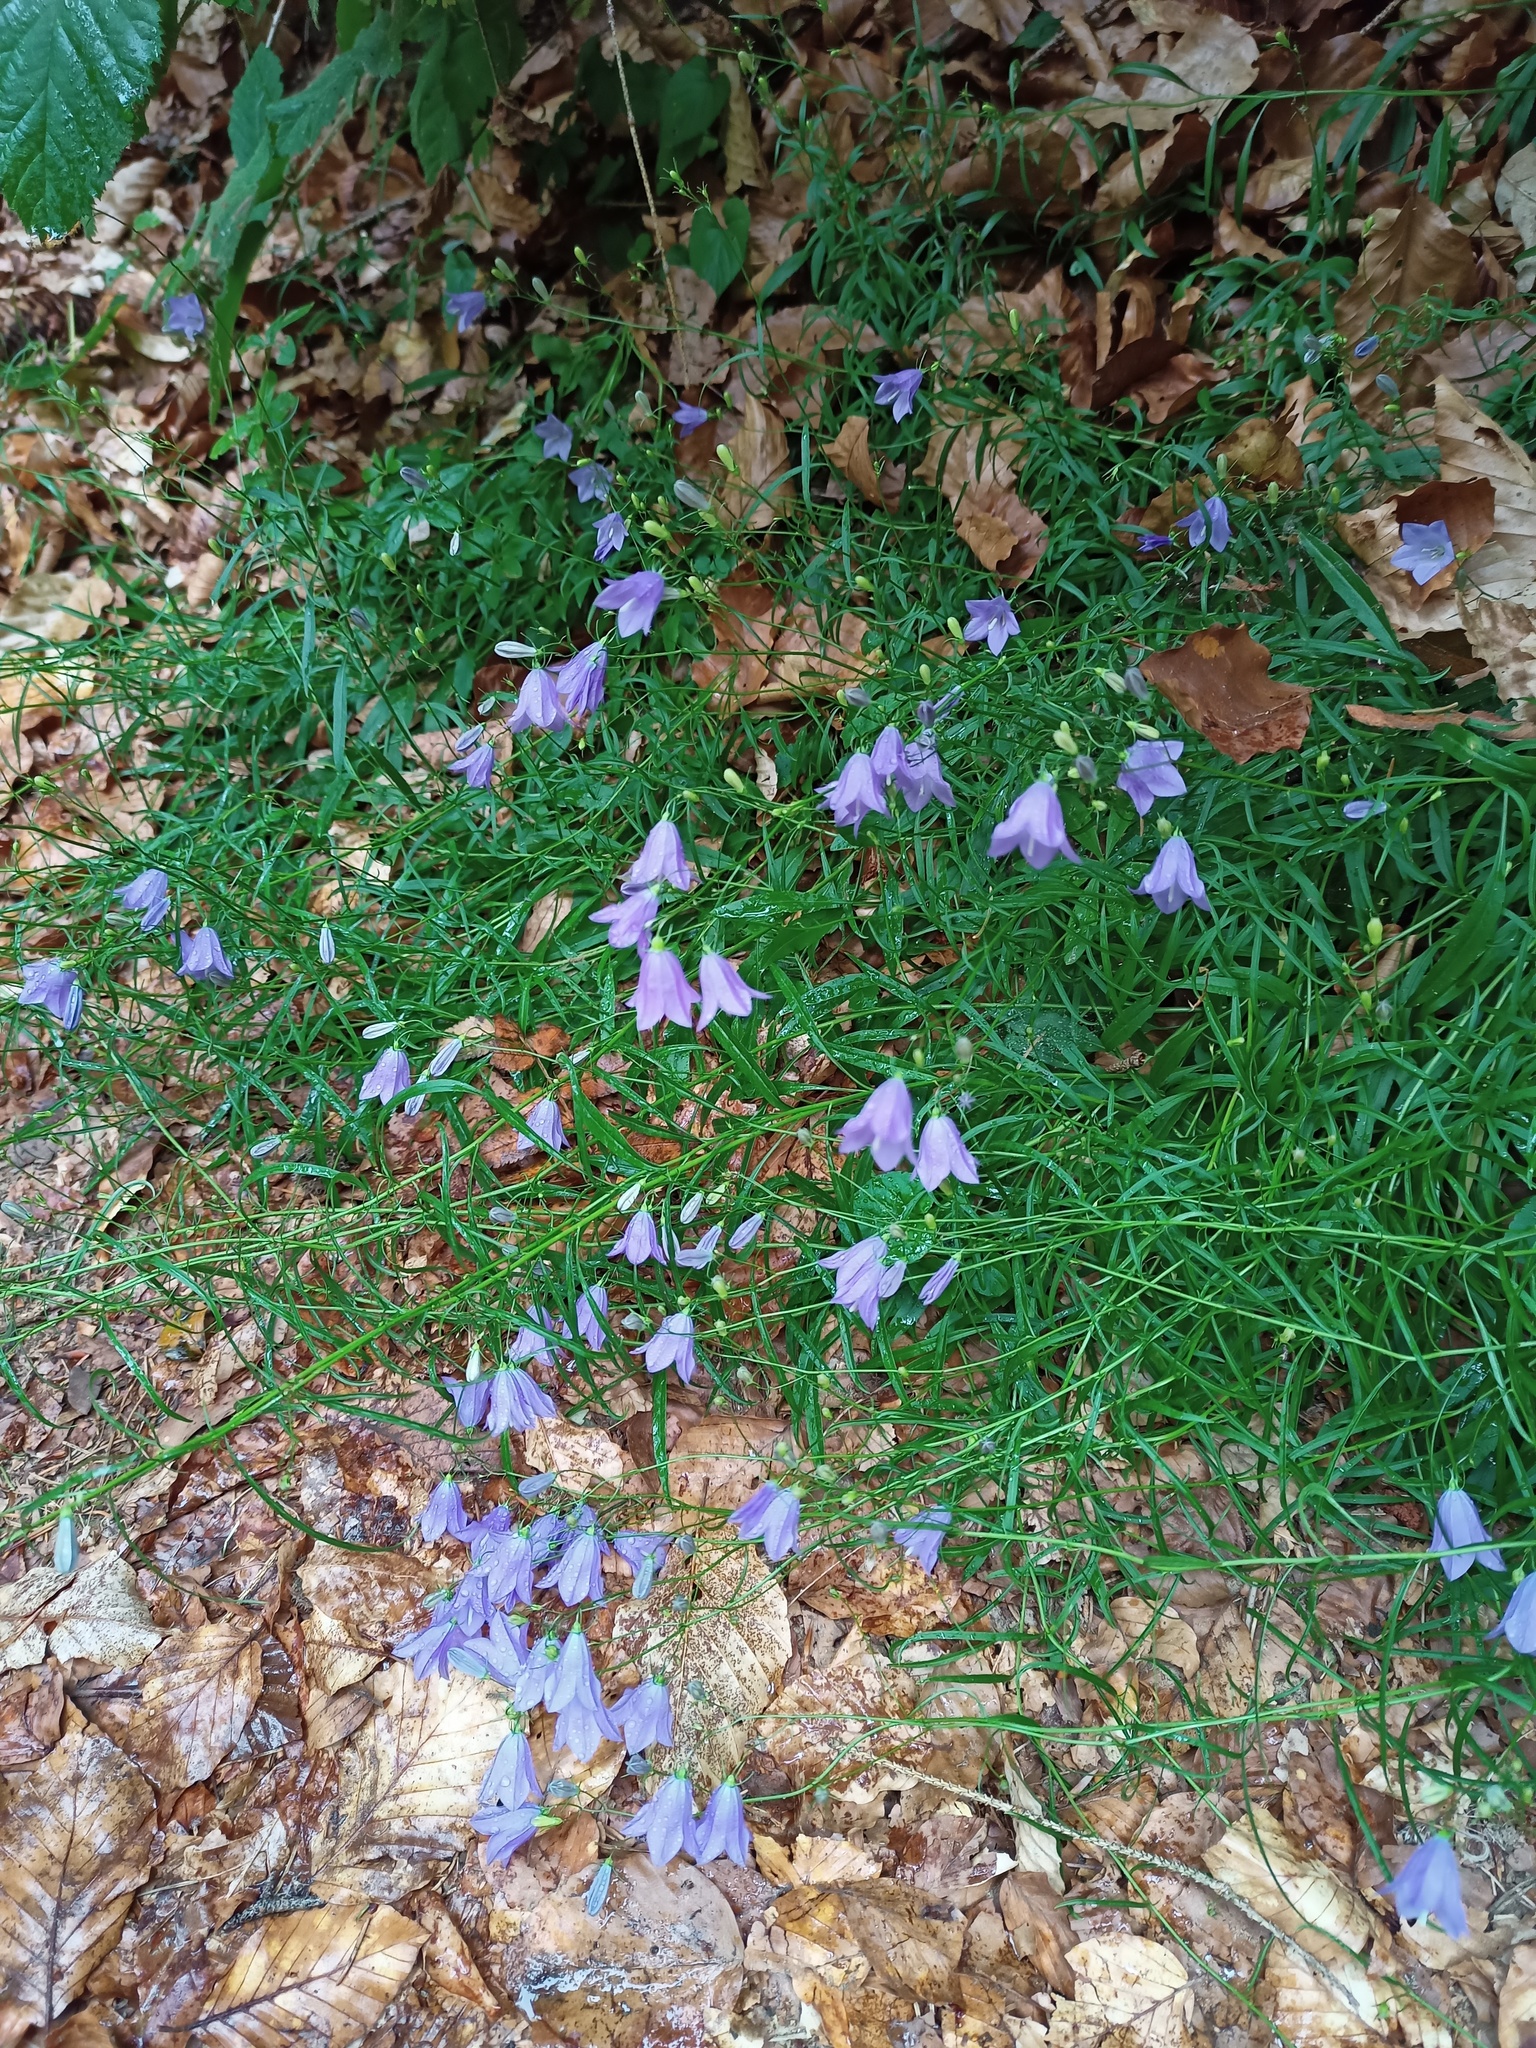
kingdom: Plantae
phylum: Tracheophyta
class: Magnoliopsida
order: Asterales
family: Campanulaceae
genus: Campanula
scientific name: Campanula rotundifolia
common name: Harebell
